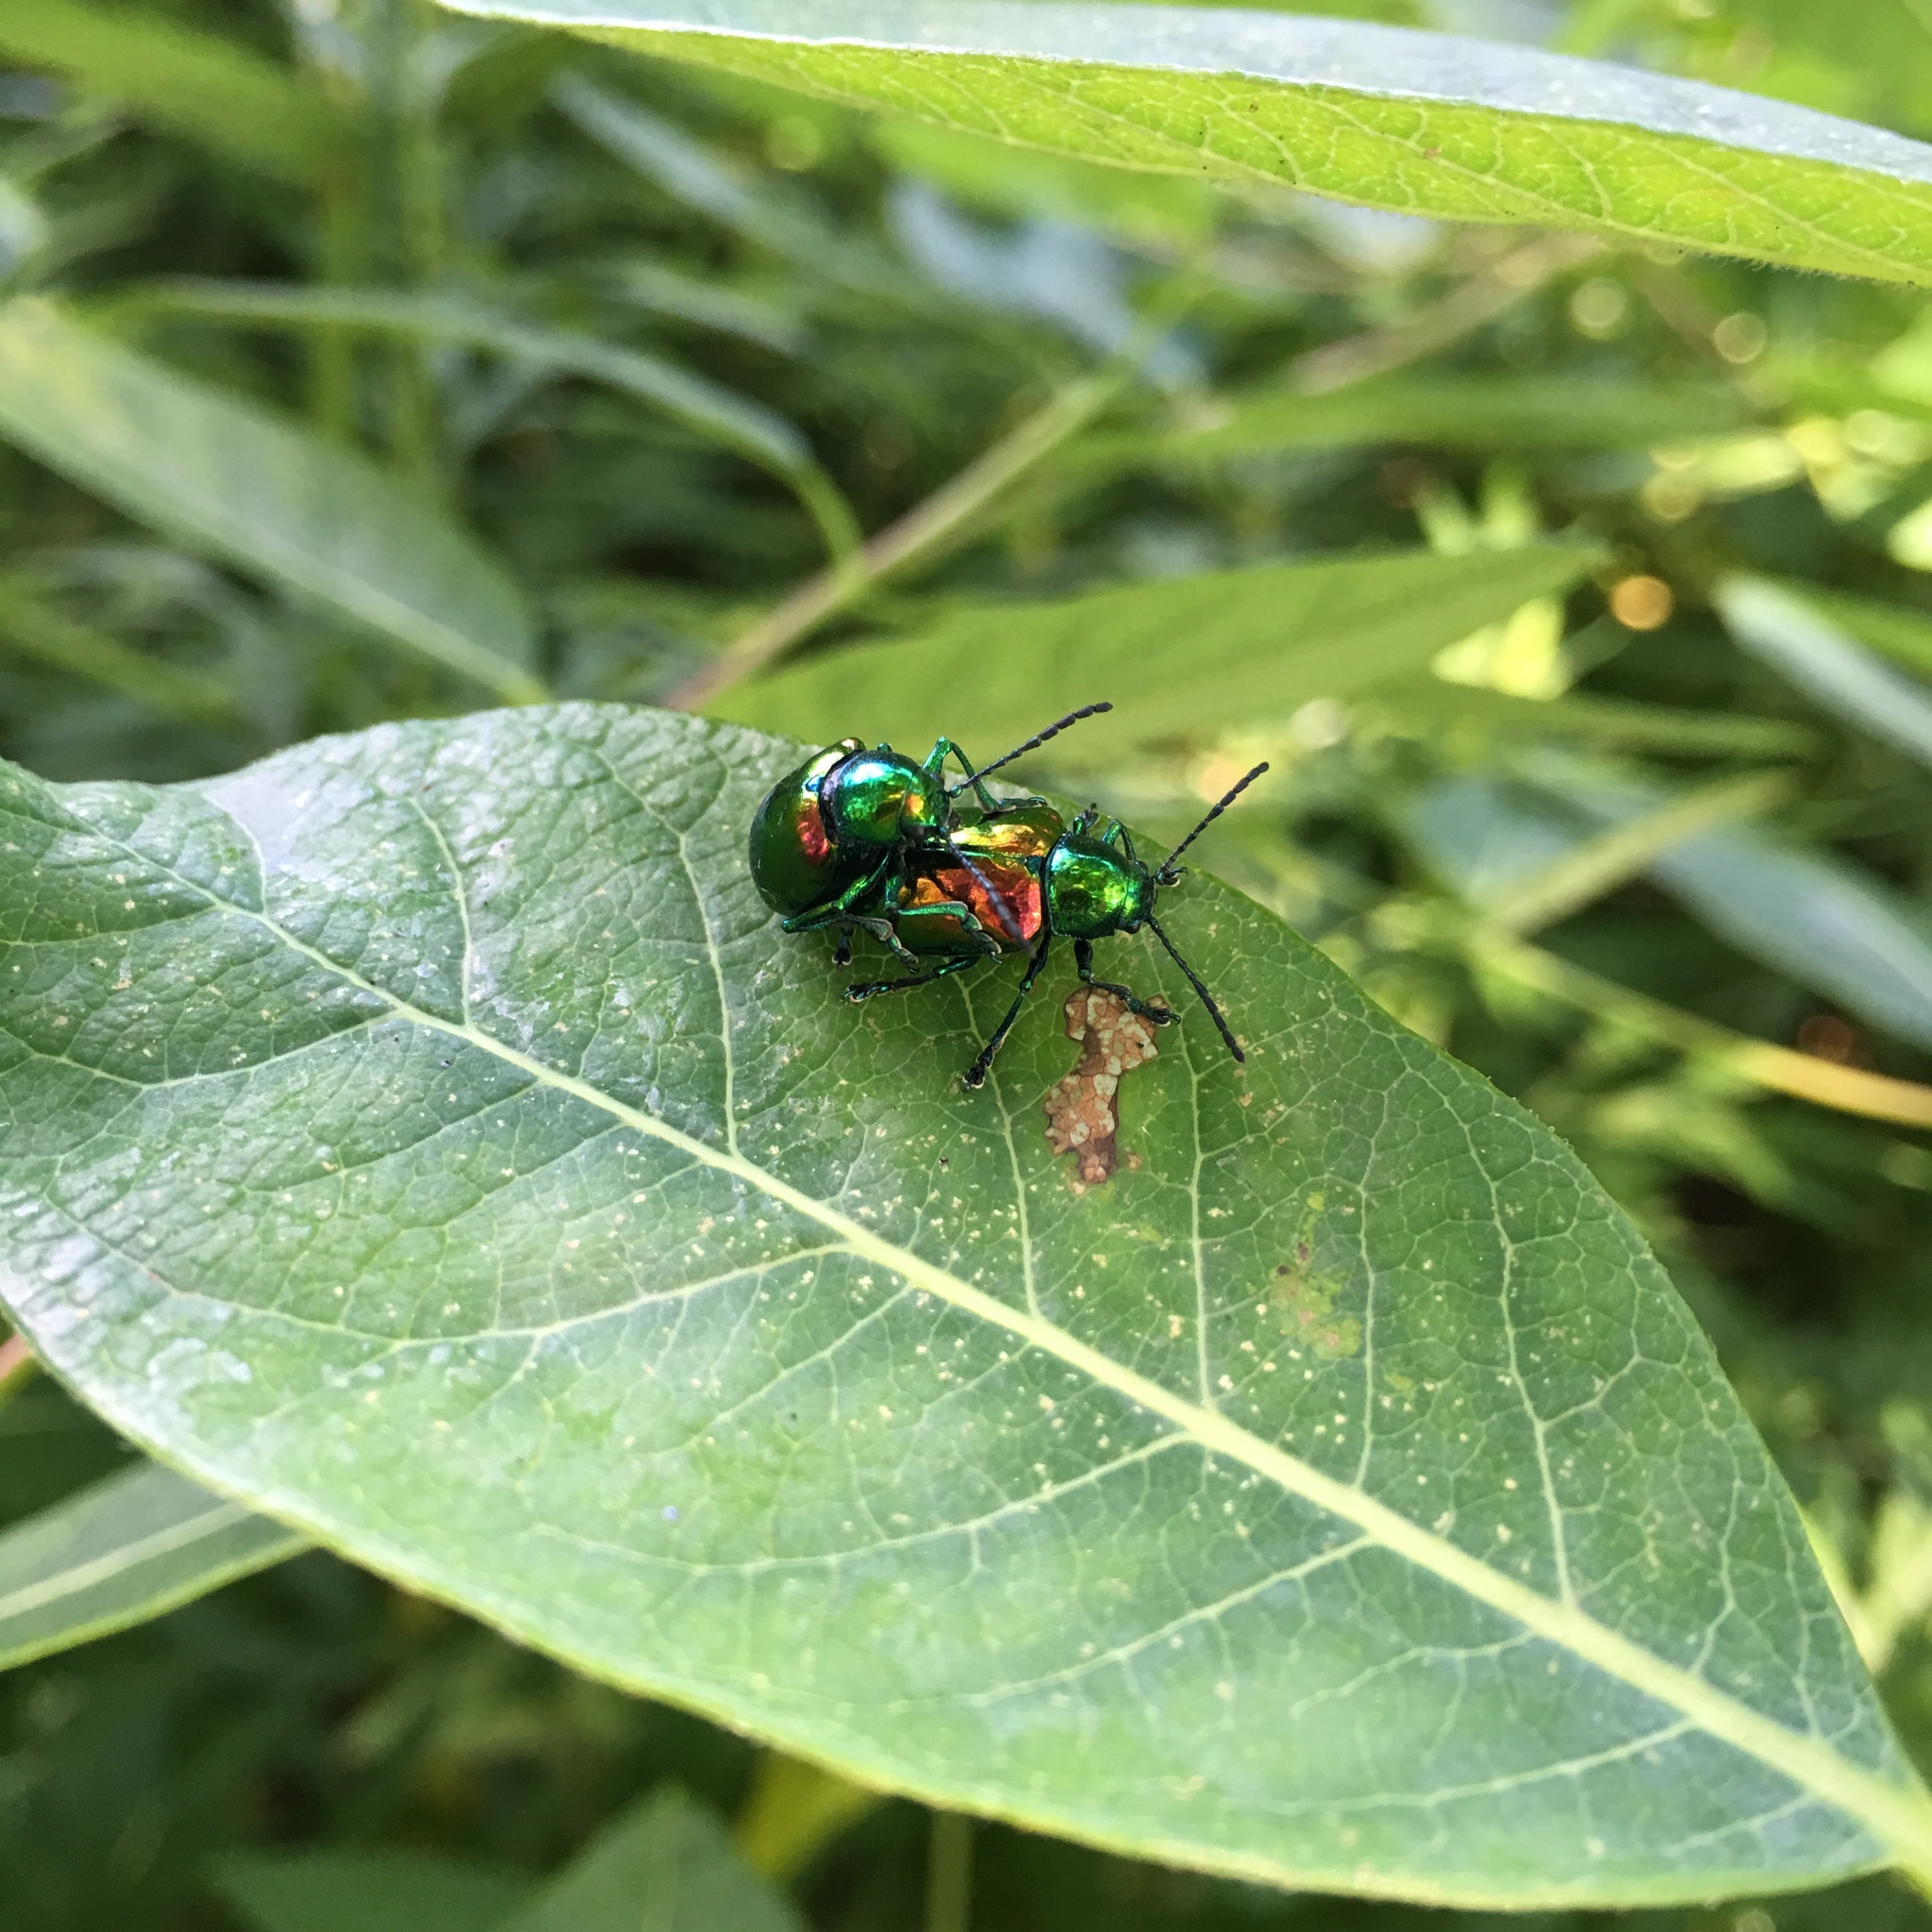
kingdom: Animalia
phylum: Arthropoda
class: Insecta
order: Coleoptera
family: Chrysomelidae
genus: Chrysochus
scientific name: Chrysochus auratus
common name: Dogbane leaf beetle
